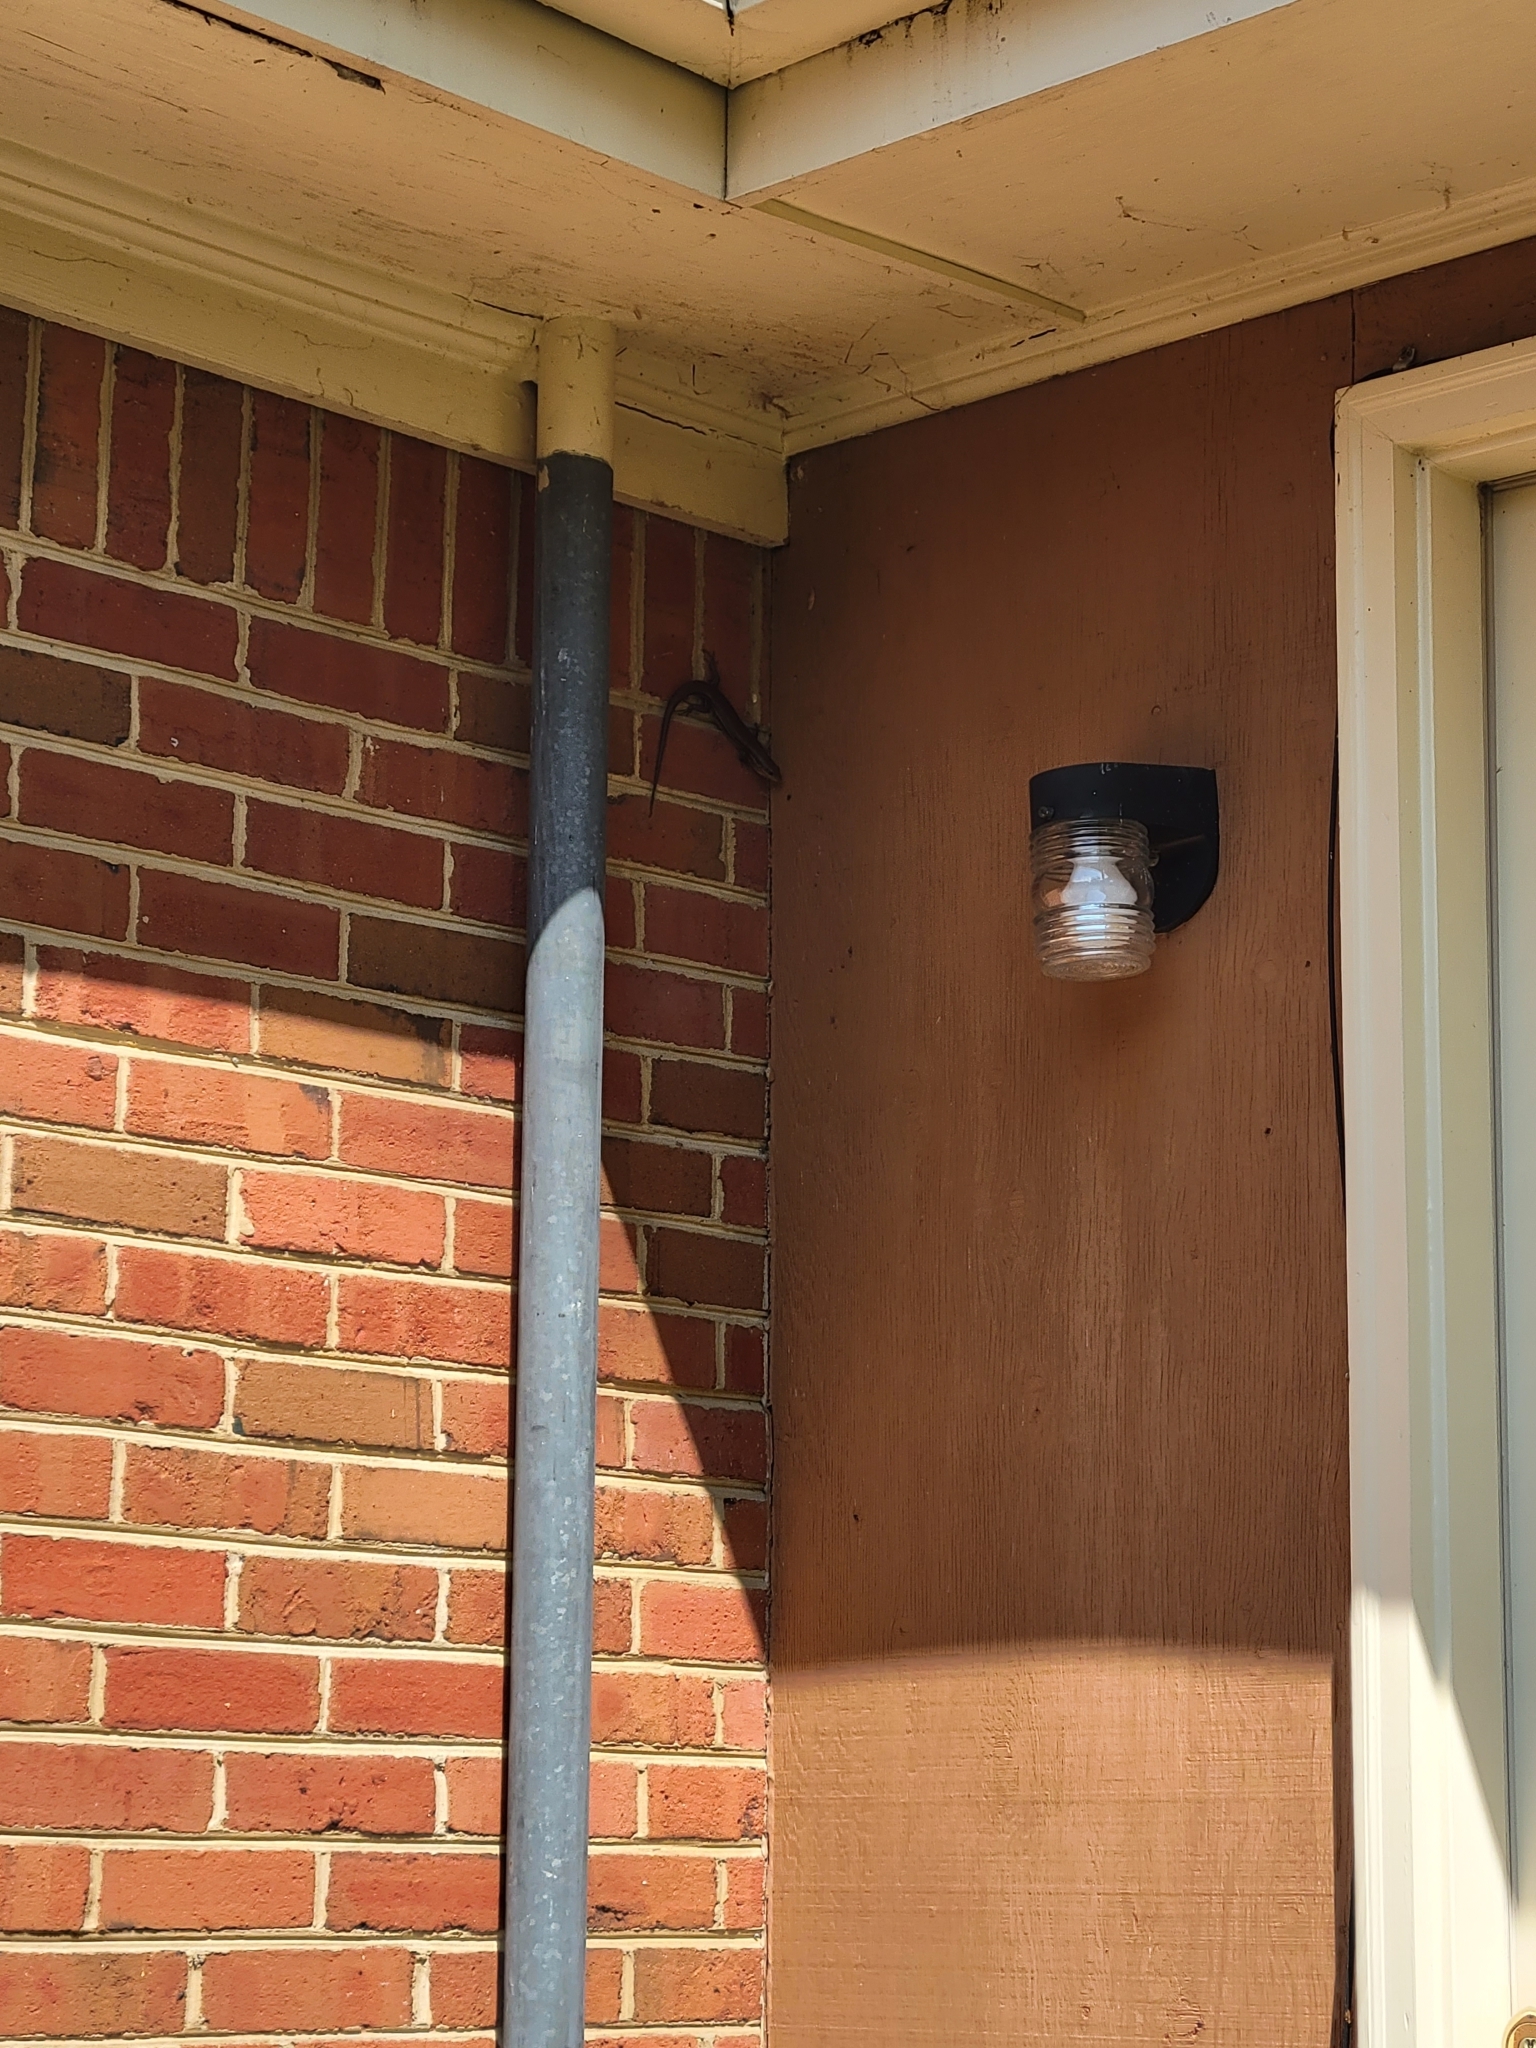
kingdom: Animalia
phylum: Chordata
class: Squamata
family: Scincidae
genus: Plestiodon
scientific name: Plestiodon laticeps
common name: Broadhead skink
